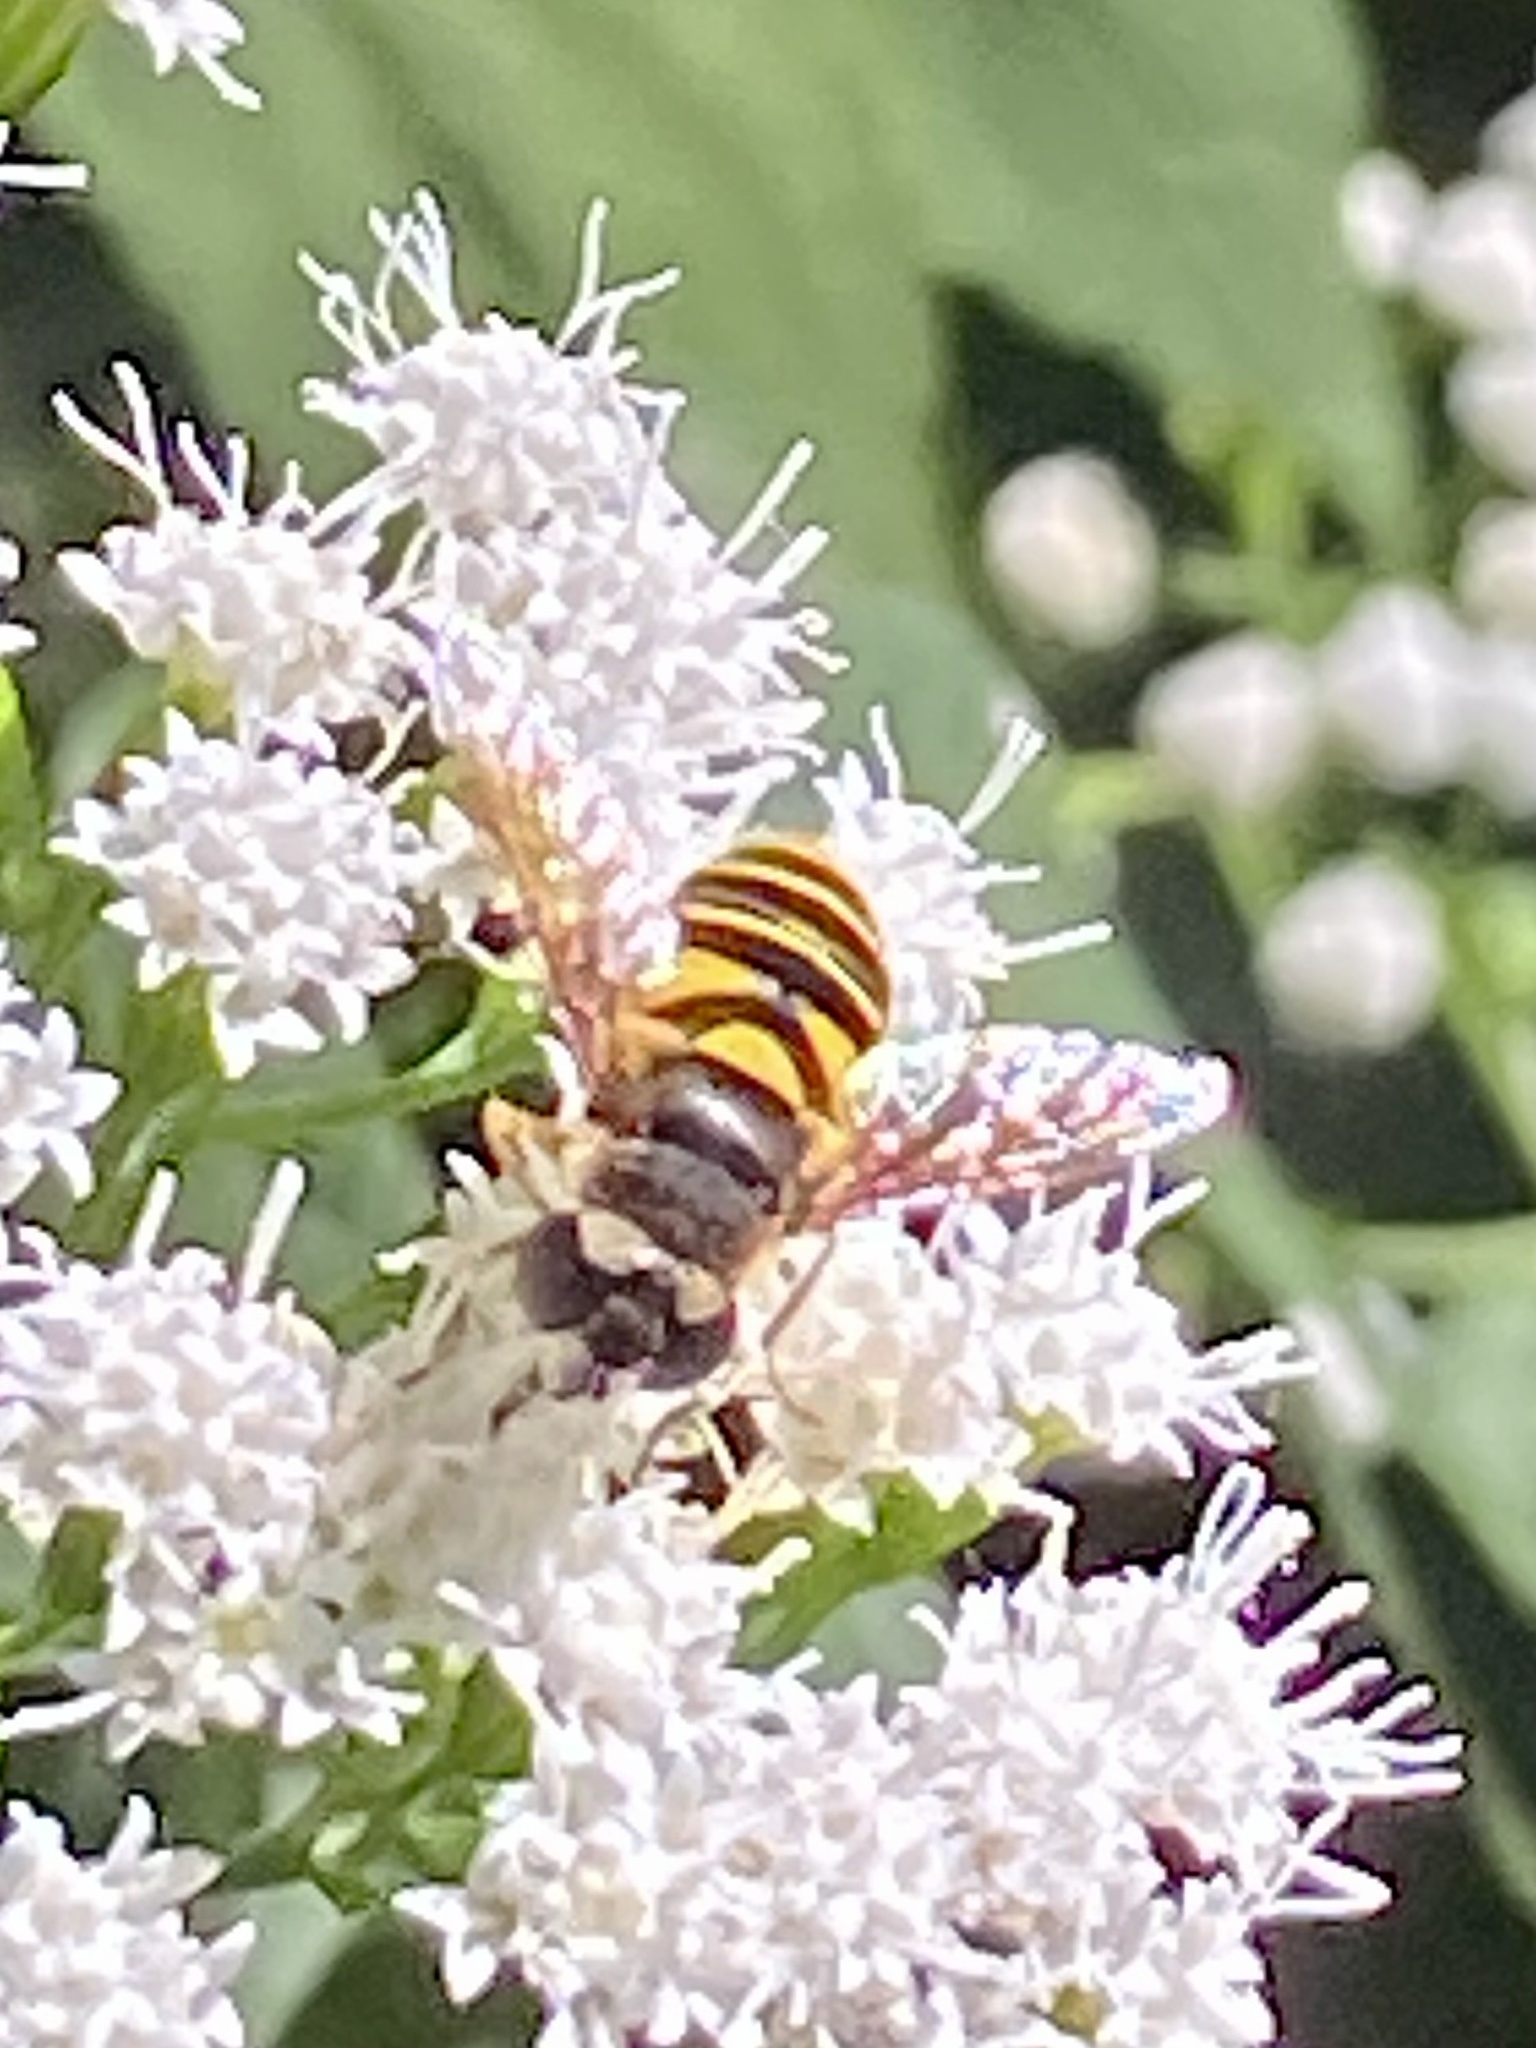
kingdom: Animalia
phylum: Arthropoda
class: Insecta
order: Diptera
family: Syrphidae
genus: Eristalis
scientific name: Eristalis transversa
